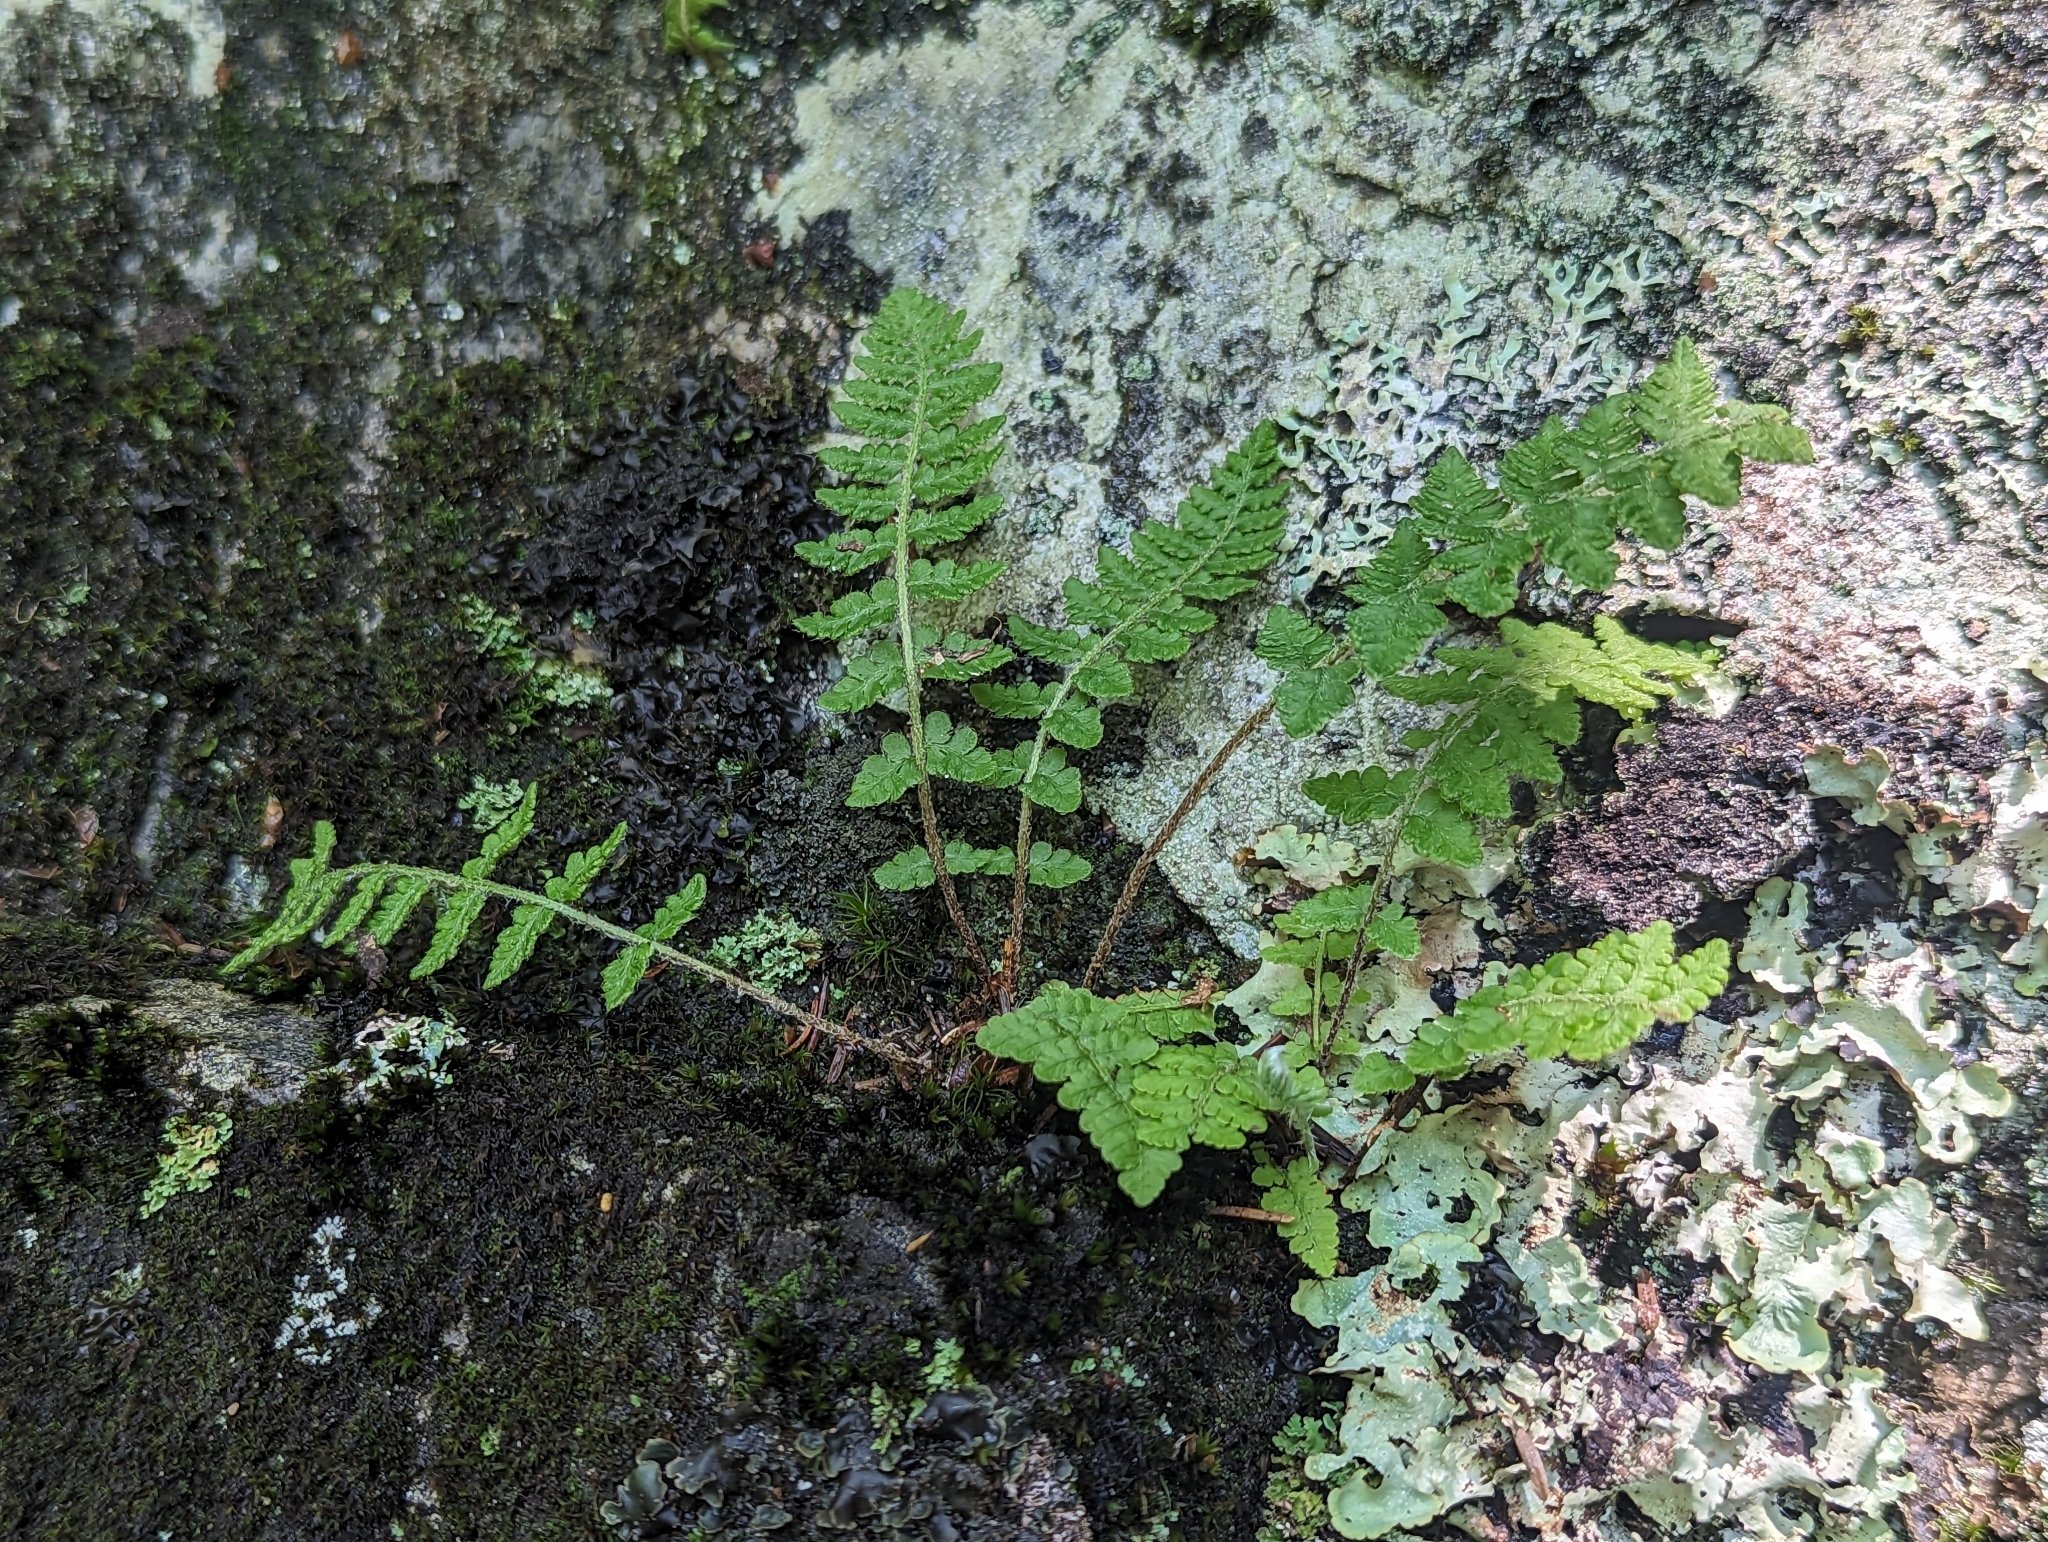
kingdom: Plantae
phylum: Tracheophyta
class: Polypodiopsida
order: Polypodiales
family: Woodsiaceae
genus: Woodsia
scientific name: Woodsia ilvensis
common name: Fragrant woodsia
